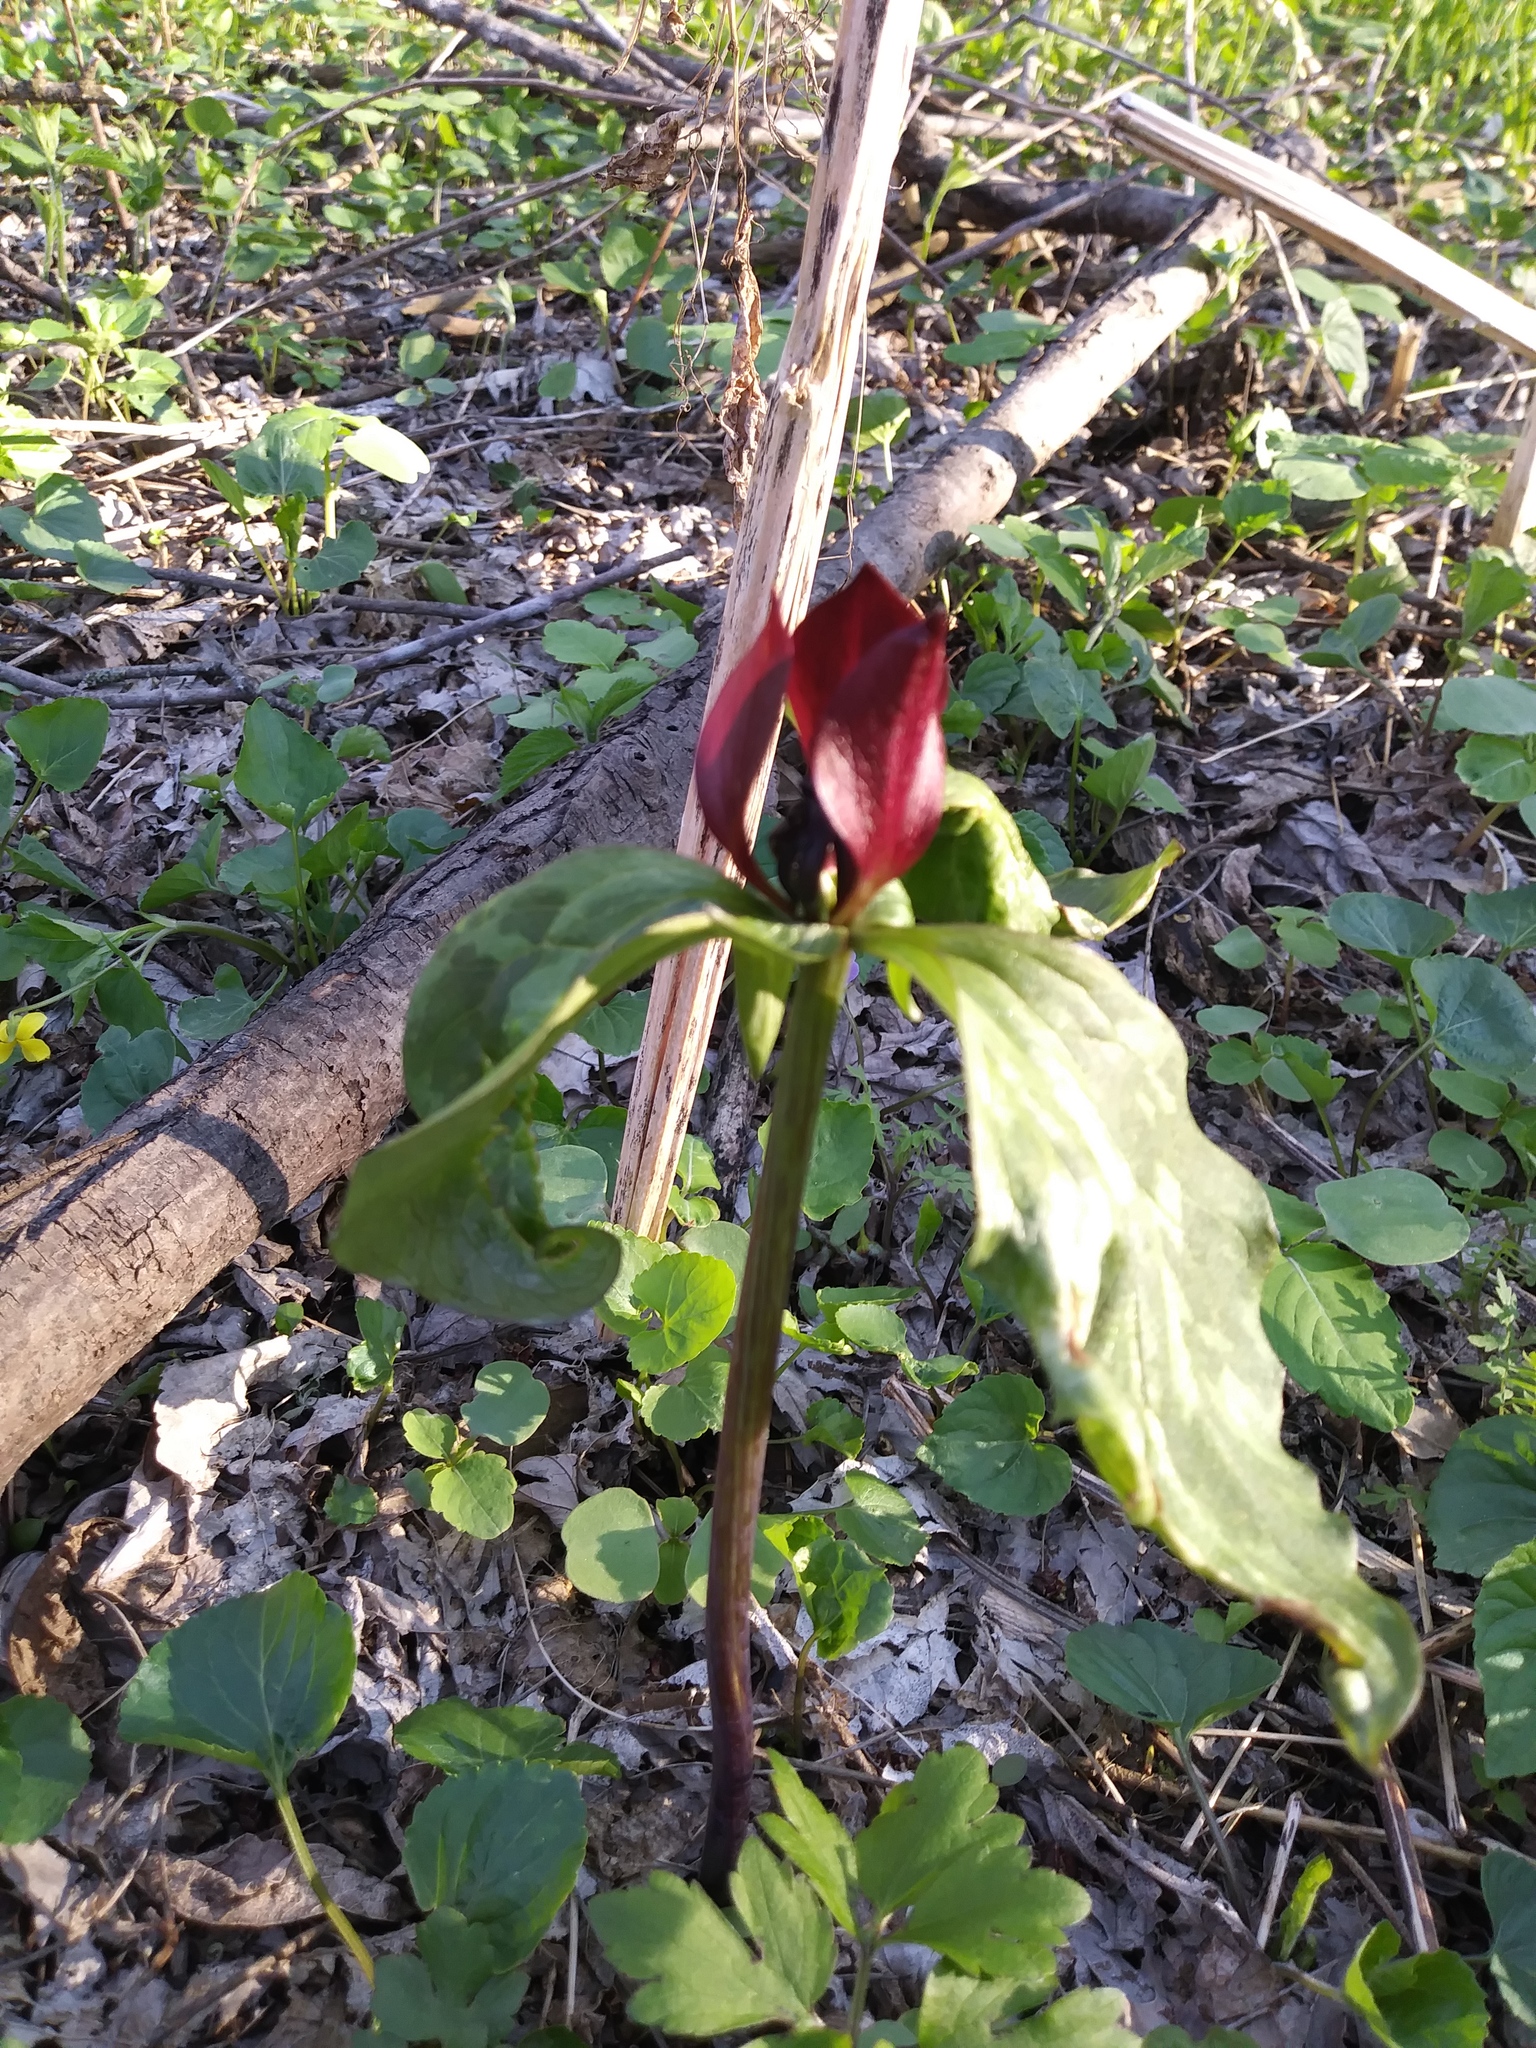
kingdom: Plantae
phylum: Tracheophyta
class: Liliopsida
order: Liliales
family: Melanthiaceae
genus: Trillium
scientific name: Trillium recurvatum
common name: Bloody butcher
